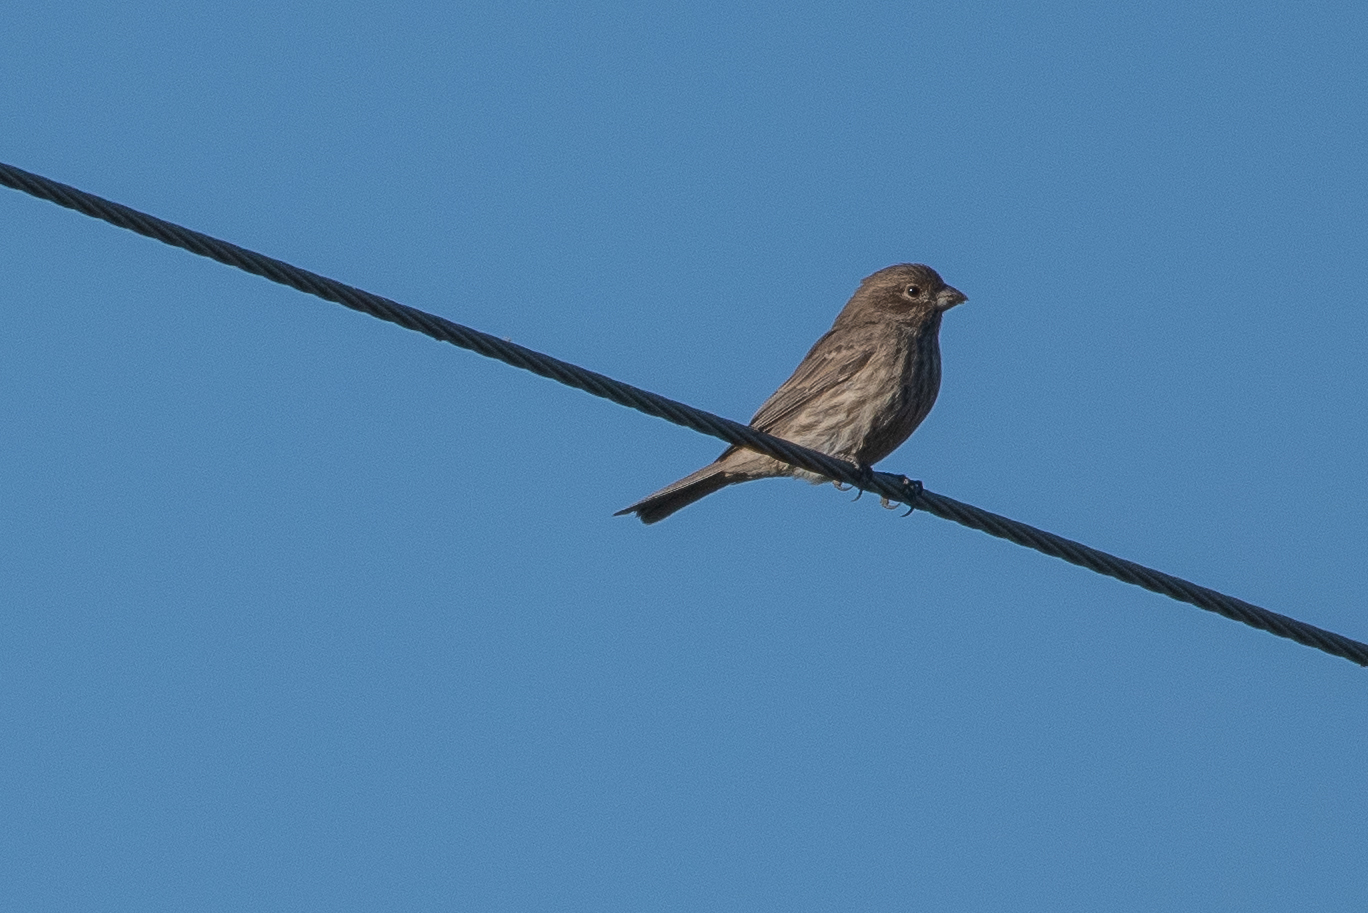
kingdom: Animalia
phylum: Chordata
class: Aves
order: Passeriformes
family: Fringillidae
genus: Haemorhous
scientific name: Haemorhous mexicanus
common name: House finch
